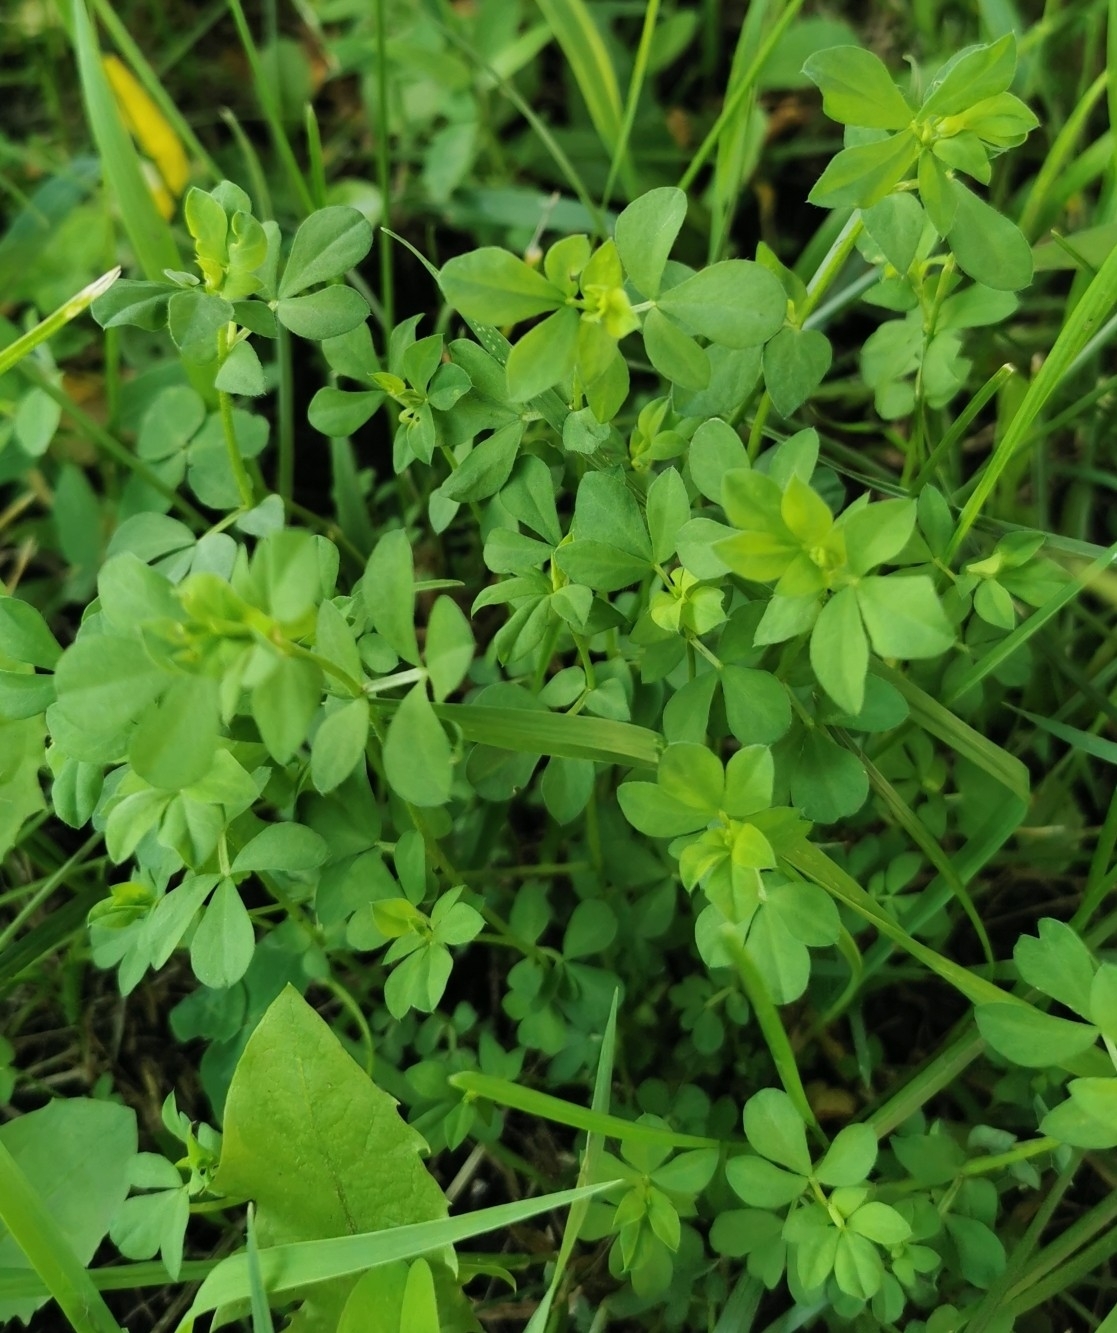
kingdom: Plantae
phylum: Tracheophyta
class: Magnoliopsida
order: Fabales
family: Fabaceae
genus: Lotus
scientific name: Lotus corniculatus
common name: Common bird's-foot-trefoil
